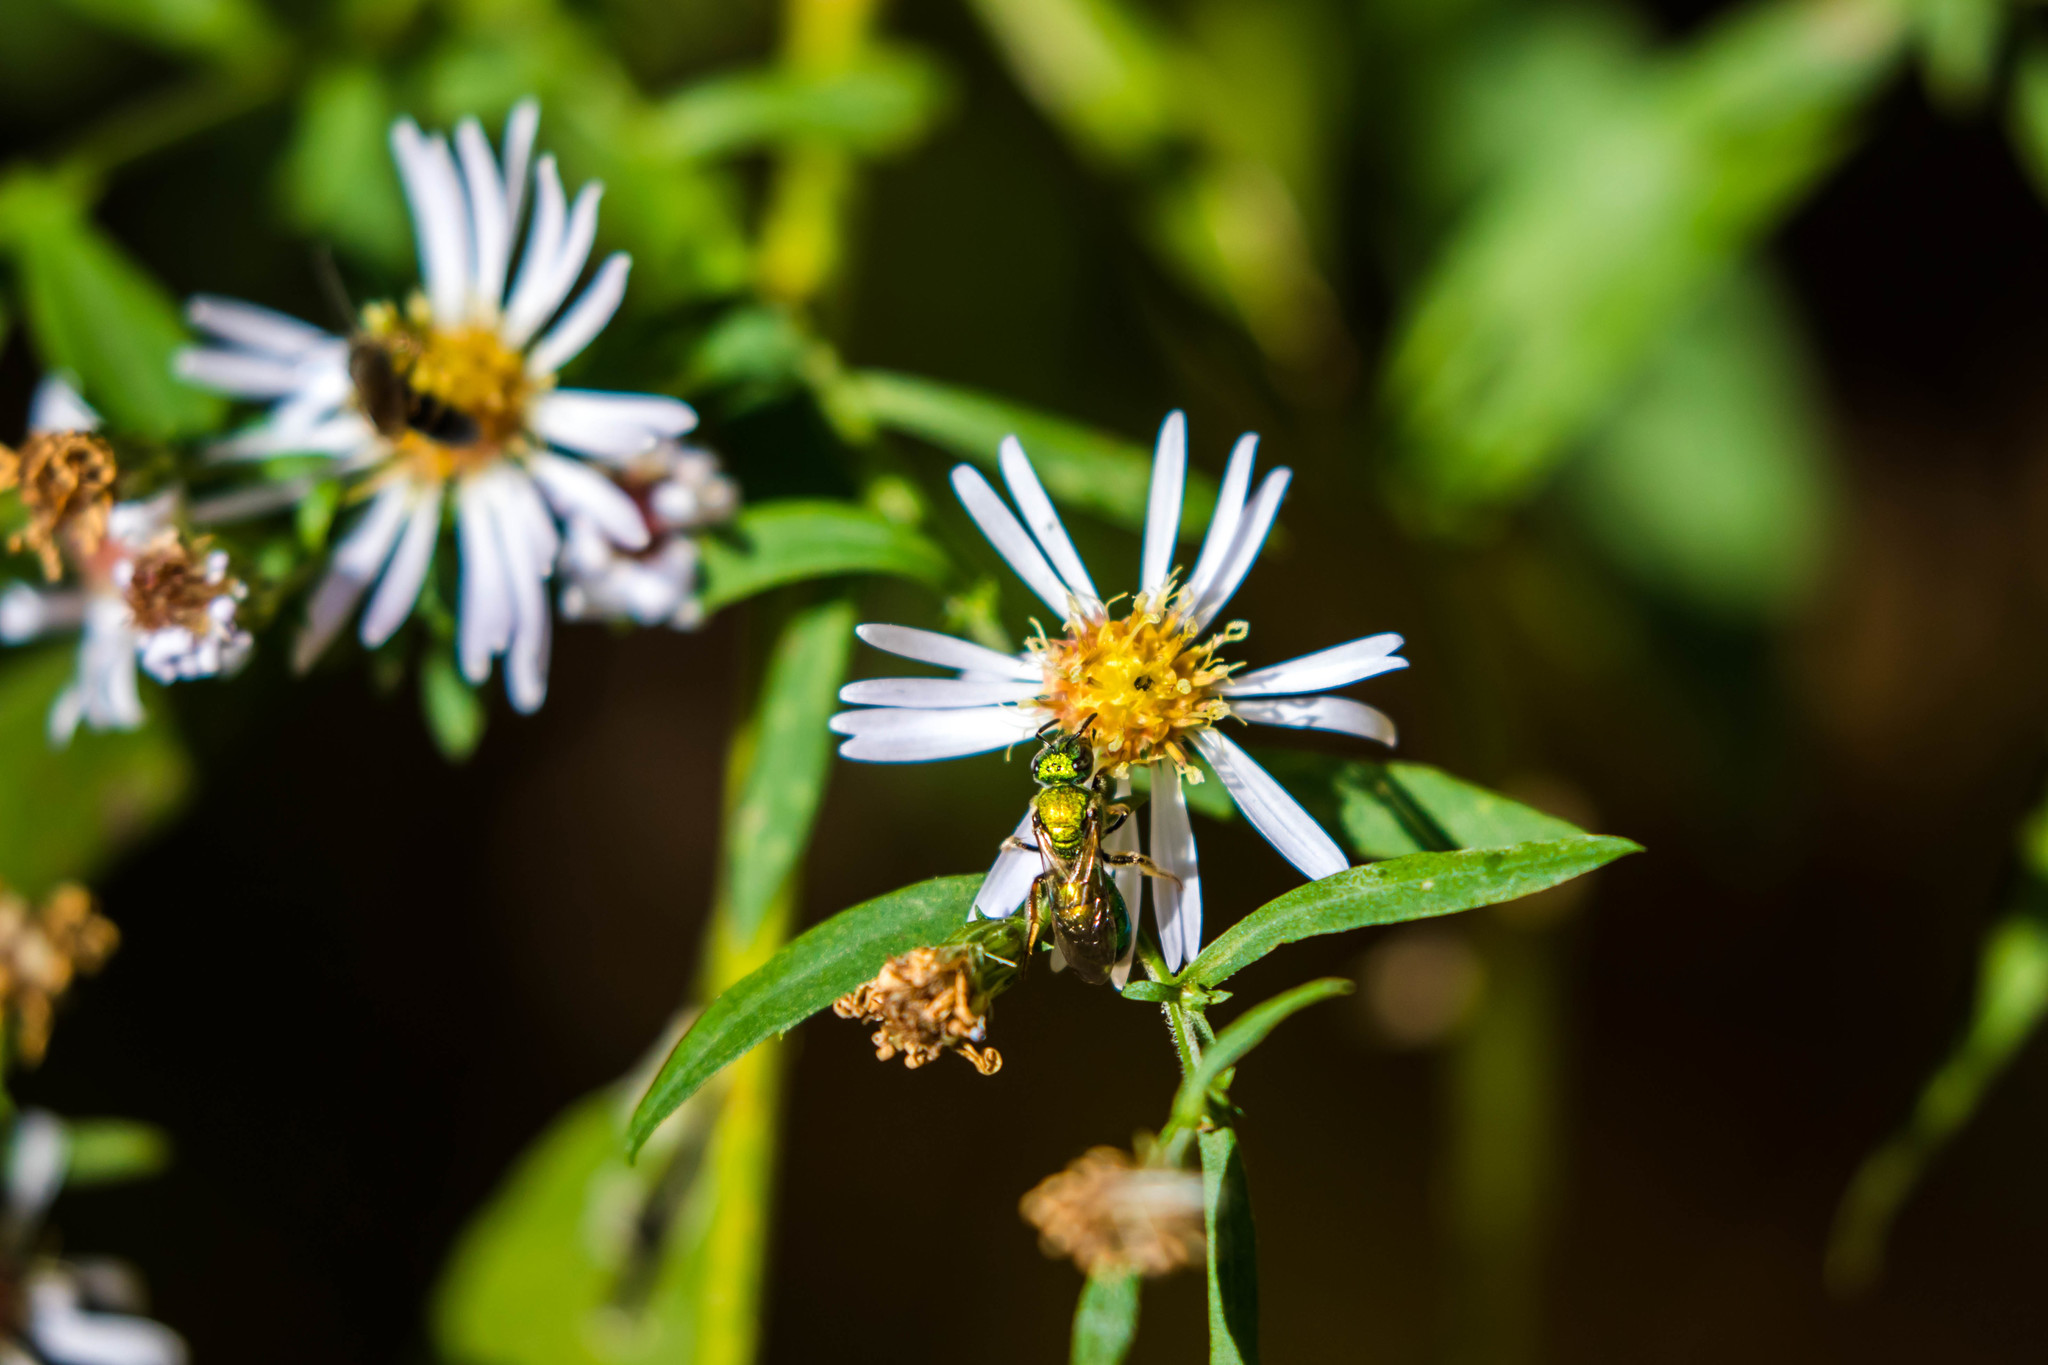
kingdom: Animalia
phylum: Arthropoda
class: Insecta
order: Hymenoptera
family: Halictidae
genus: Augochlora
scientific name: Augochlora pura
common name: Pure green sweat bee
